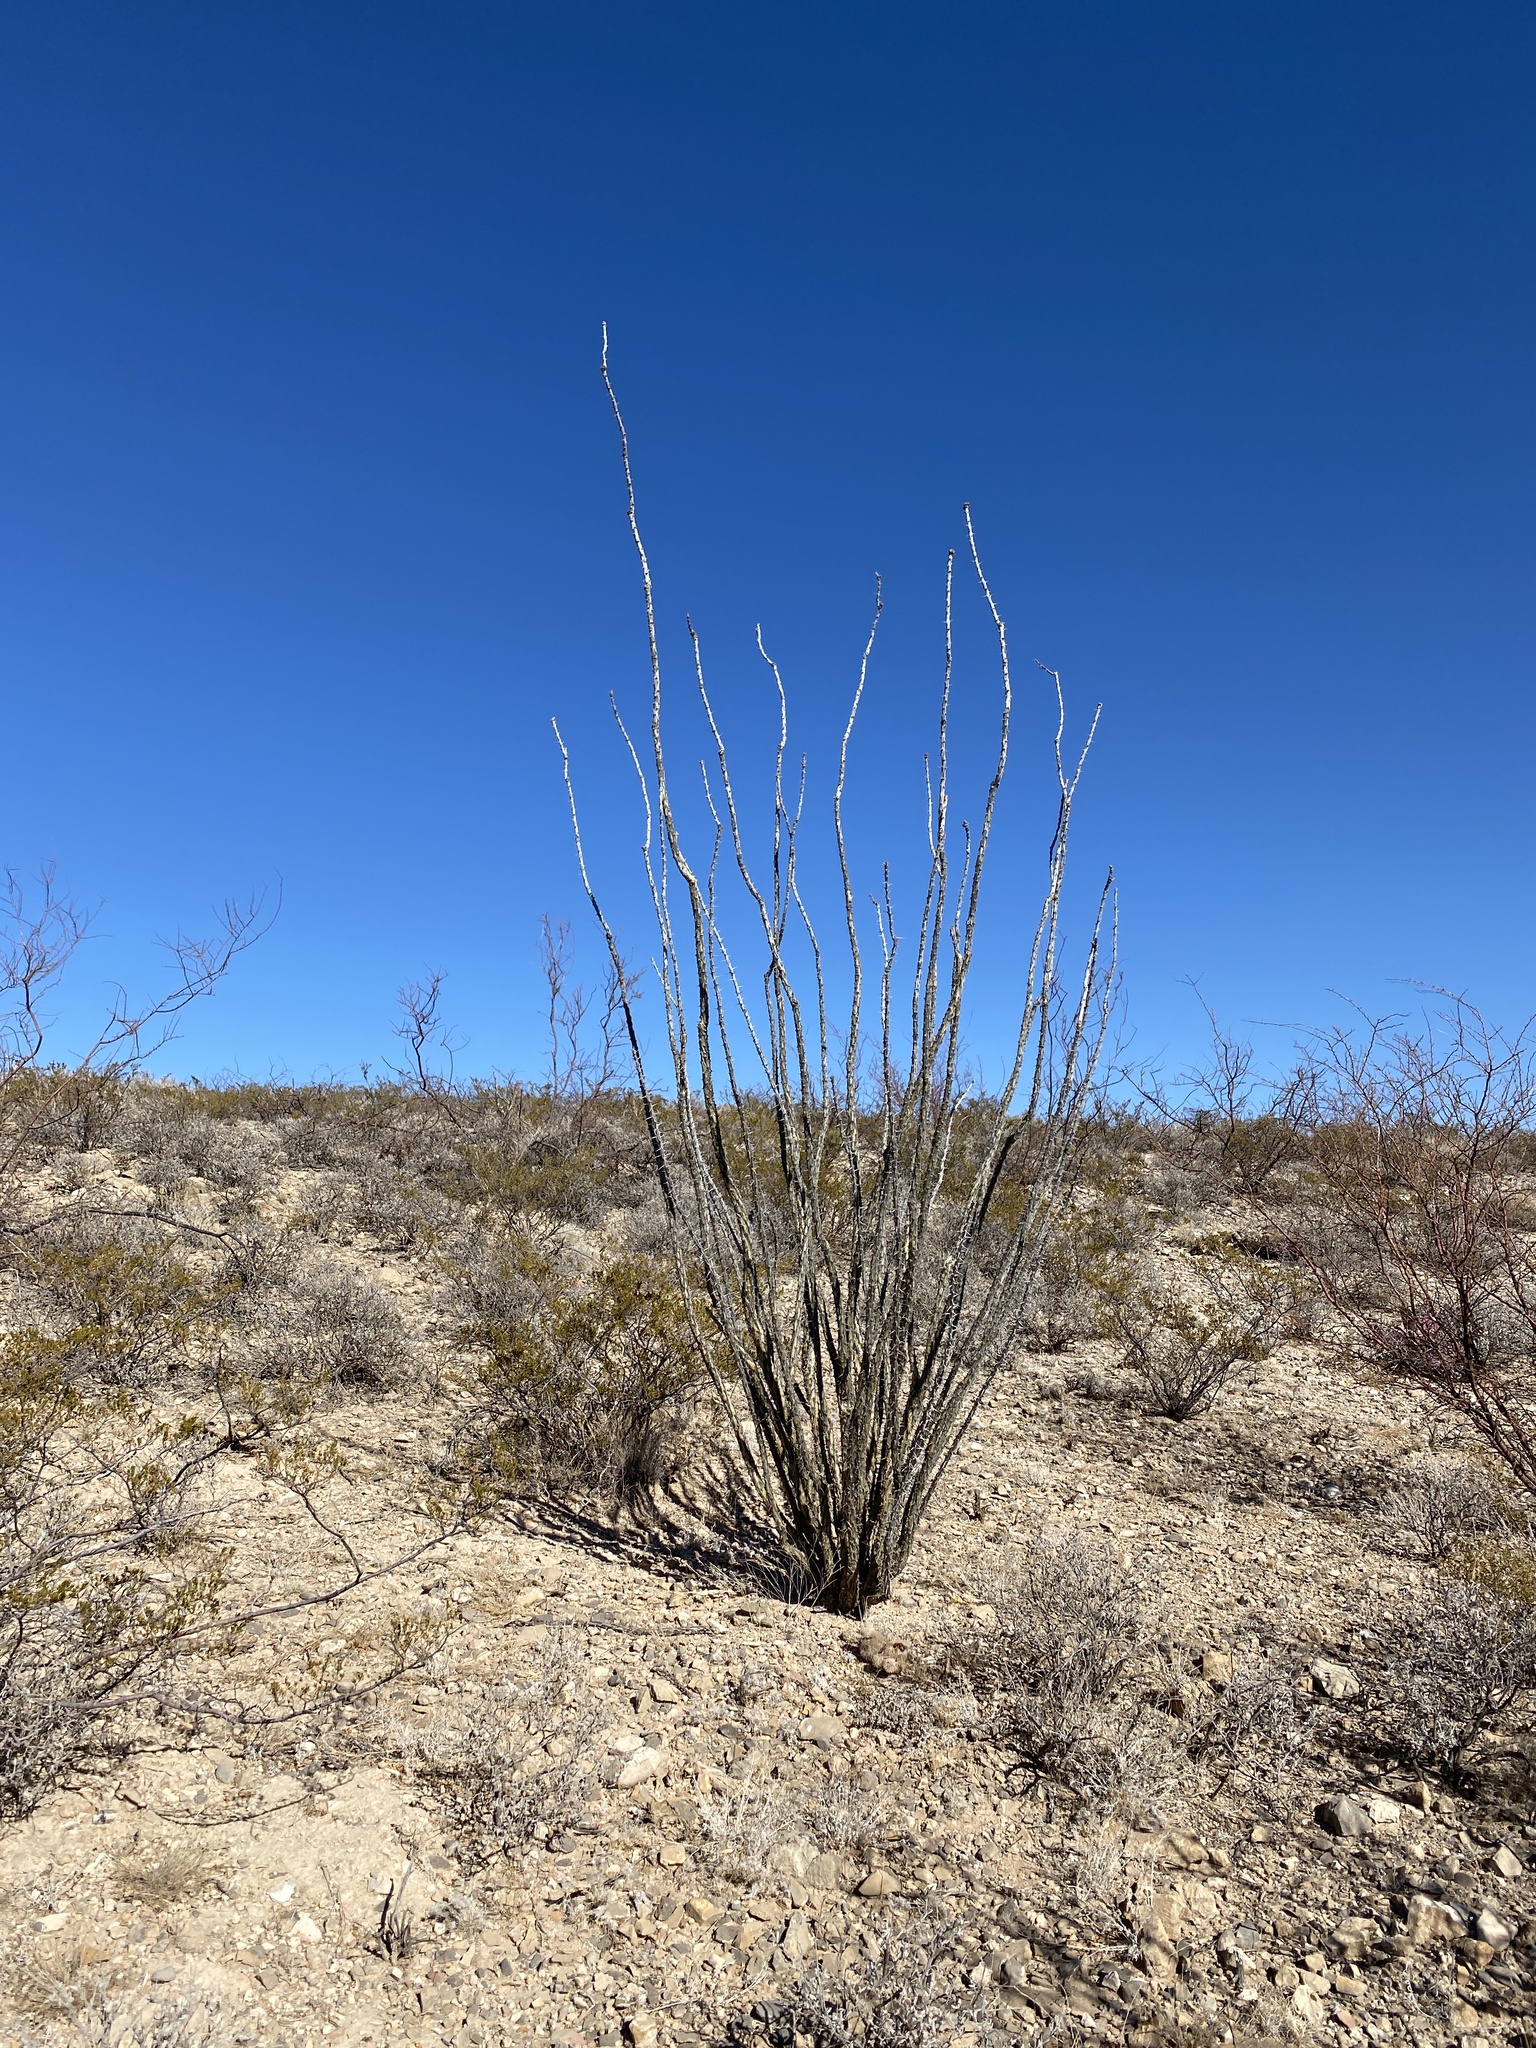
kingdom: Plantae
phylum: Tracheophyta
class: Magnoliopsida
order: Ericales
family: Fouquieriaceae
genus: Fouquieria
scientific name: Fouquieria splendens
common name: Vine-cactus
